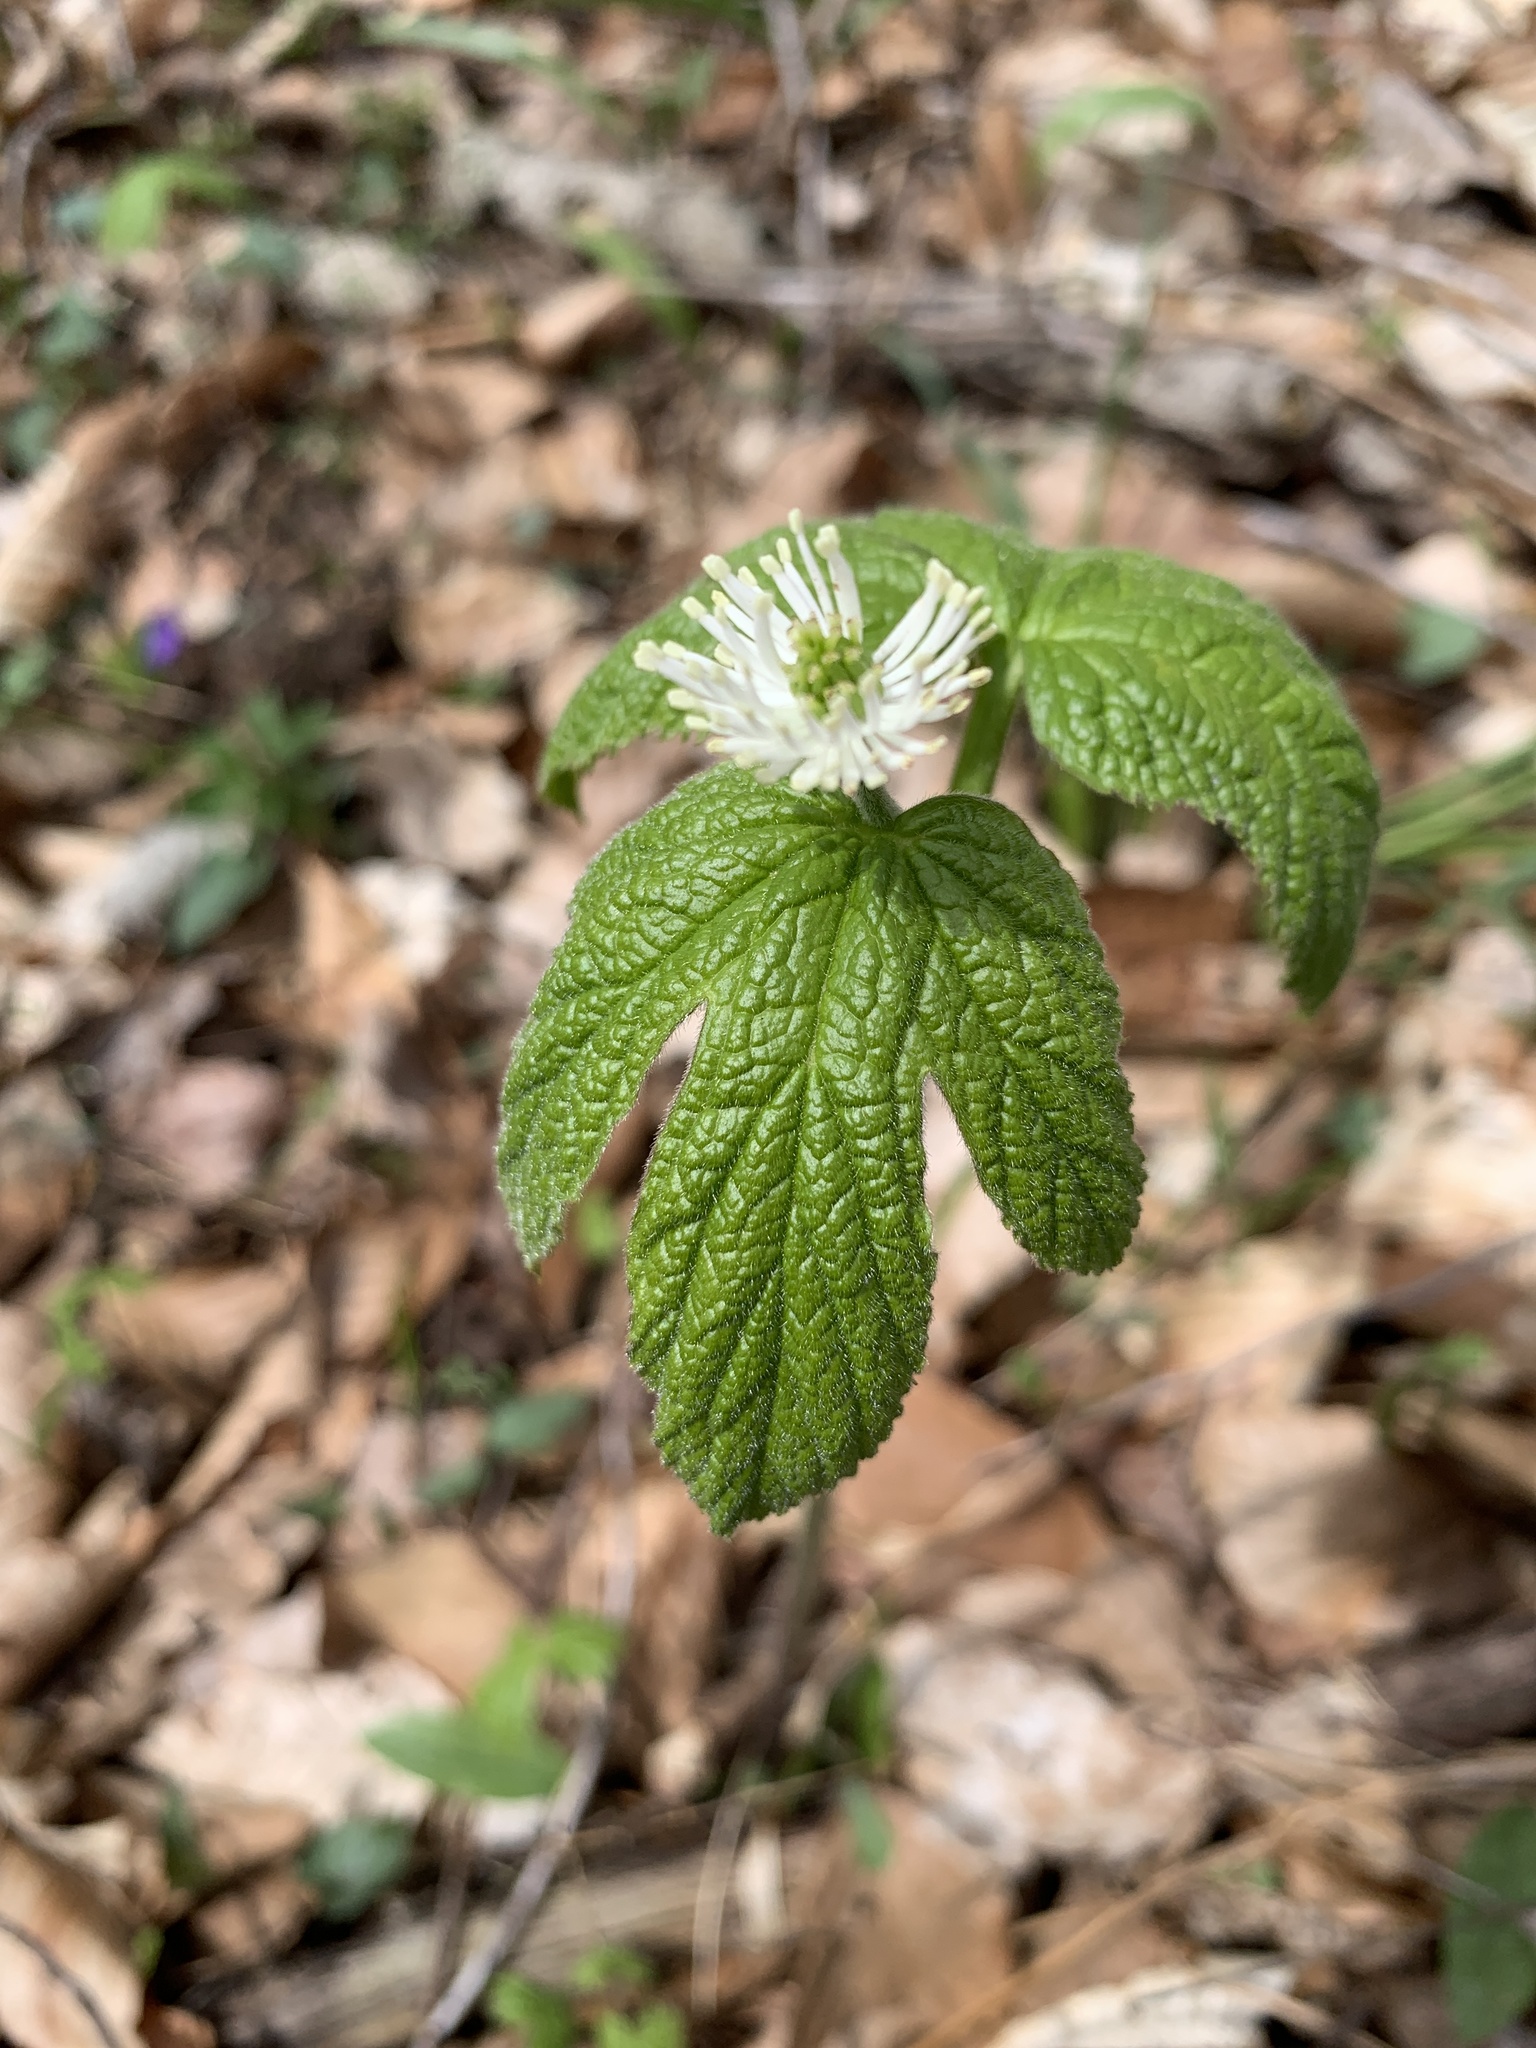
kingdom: Plantae
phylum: Tracheophyta
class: Magnoliopsida
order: Ranunculales
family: Ranunculaceae
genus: Hydrastis
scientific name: Hydrastis canadensis
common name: Goldenseal
